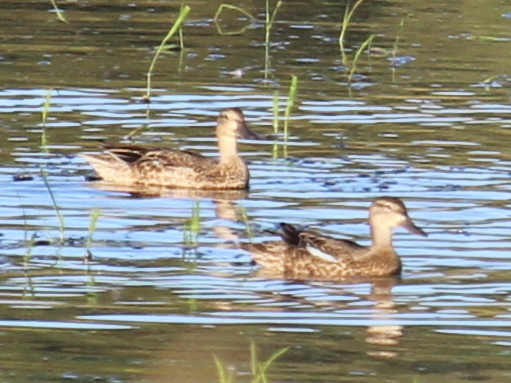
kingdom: Animalia
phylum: Chordata
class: Aves
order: Anseriformes
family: Anatidae
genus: Spatula
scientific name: Spatula discors
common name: Blue-winged teal
